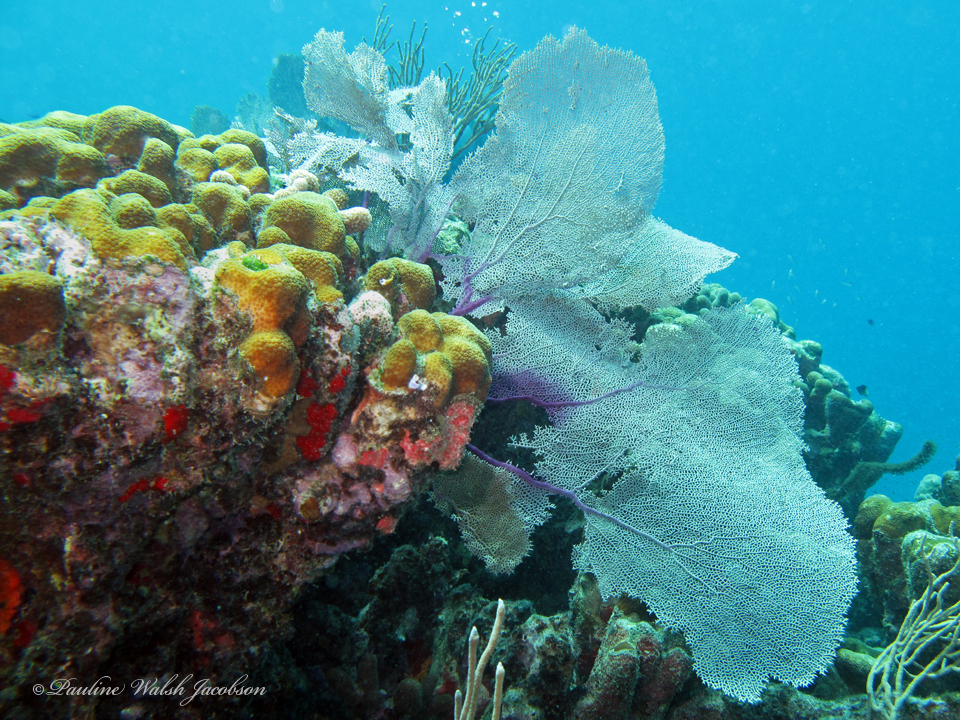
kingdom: Animalia
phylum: Cnidaria
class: Anthozoa
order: Malacalcyonacea
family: Gorgoniidae
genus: Gorgonia
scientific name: Gorgonia ventalina
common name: Common sea fan
